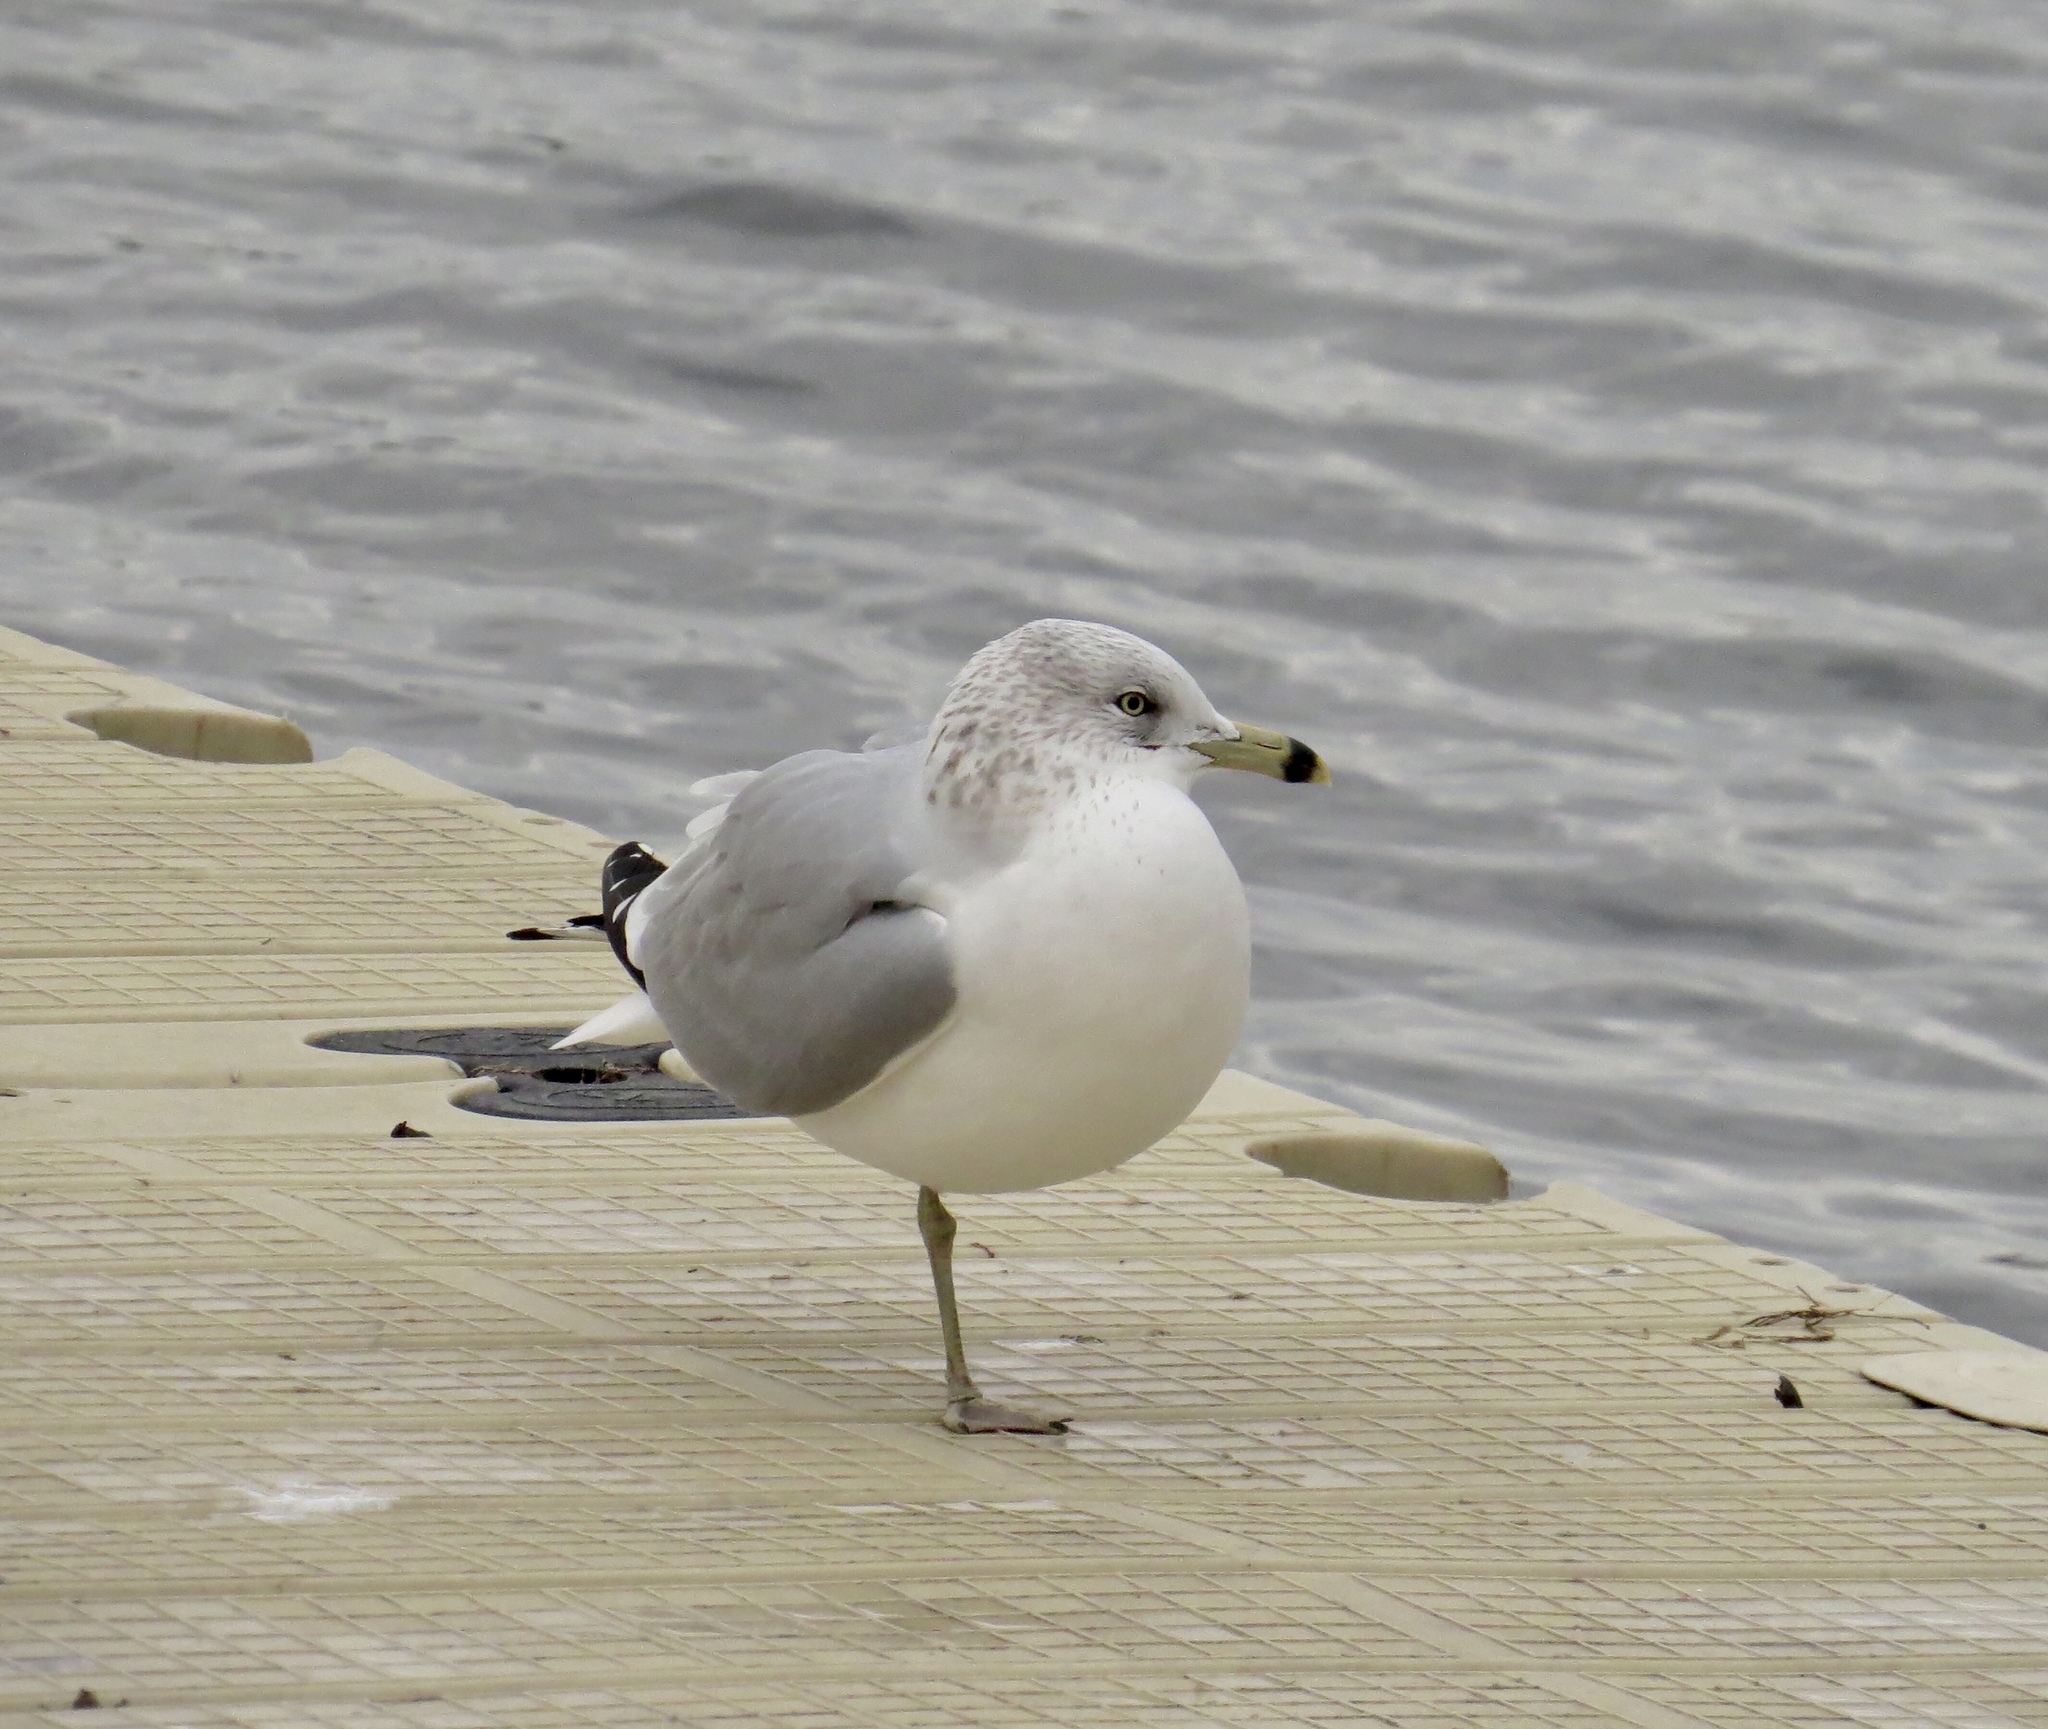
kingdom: Animalia
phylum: Chordata
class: Aves
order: Charadriiformes
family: Laridae
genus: Larus
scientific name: Larus delawarensis
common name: Ring-billed gull
